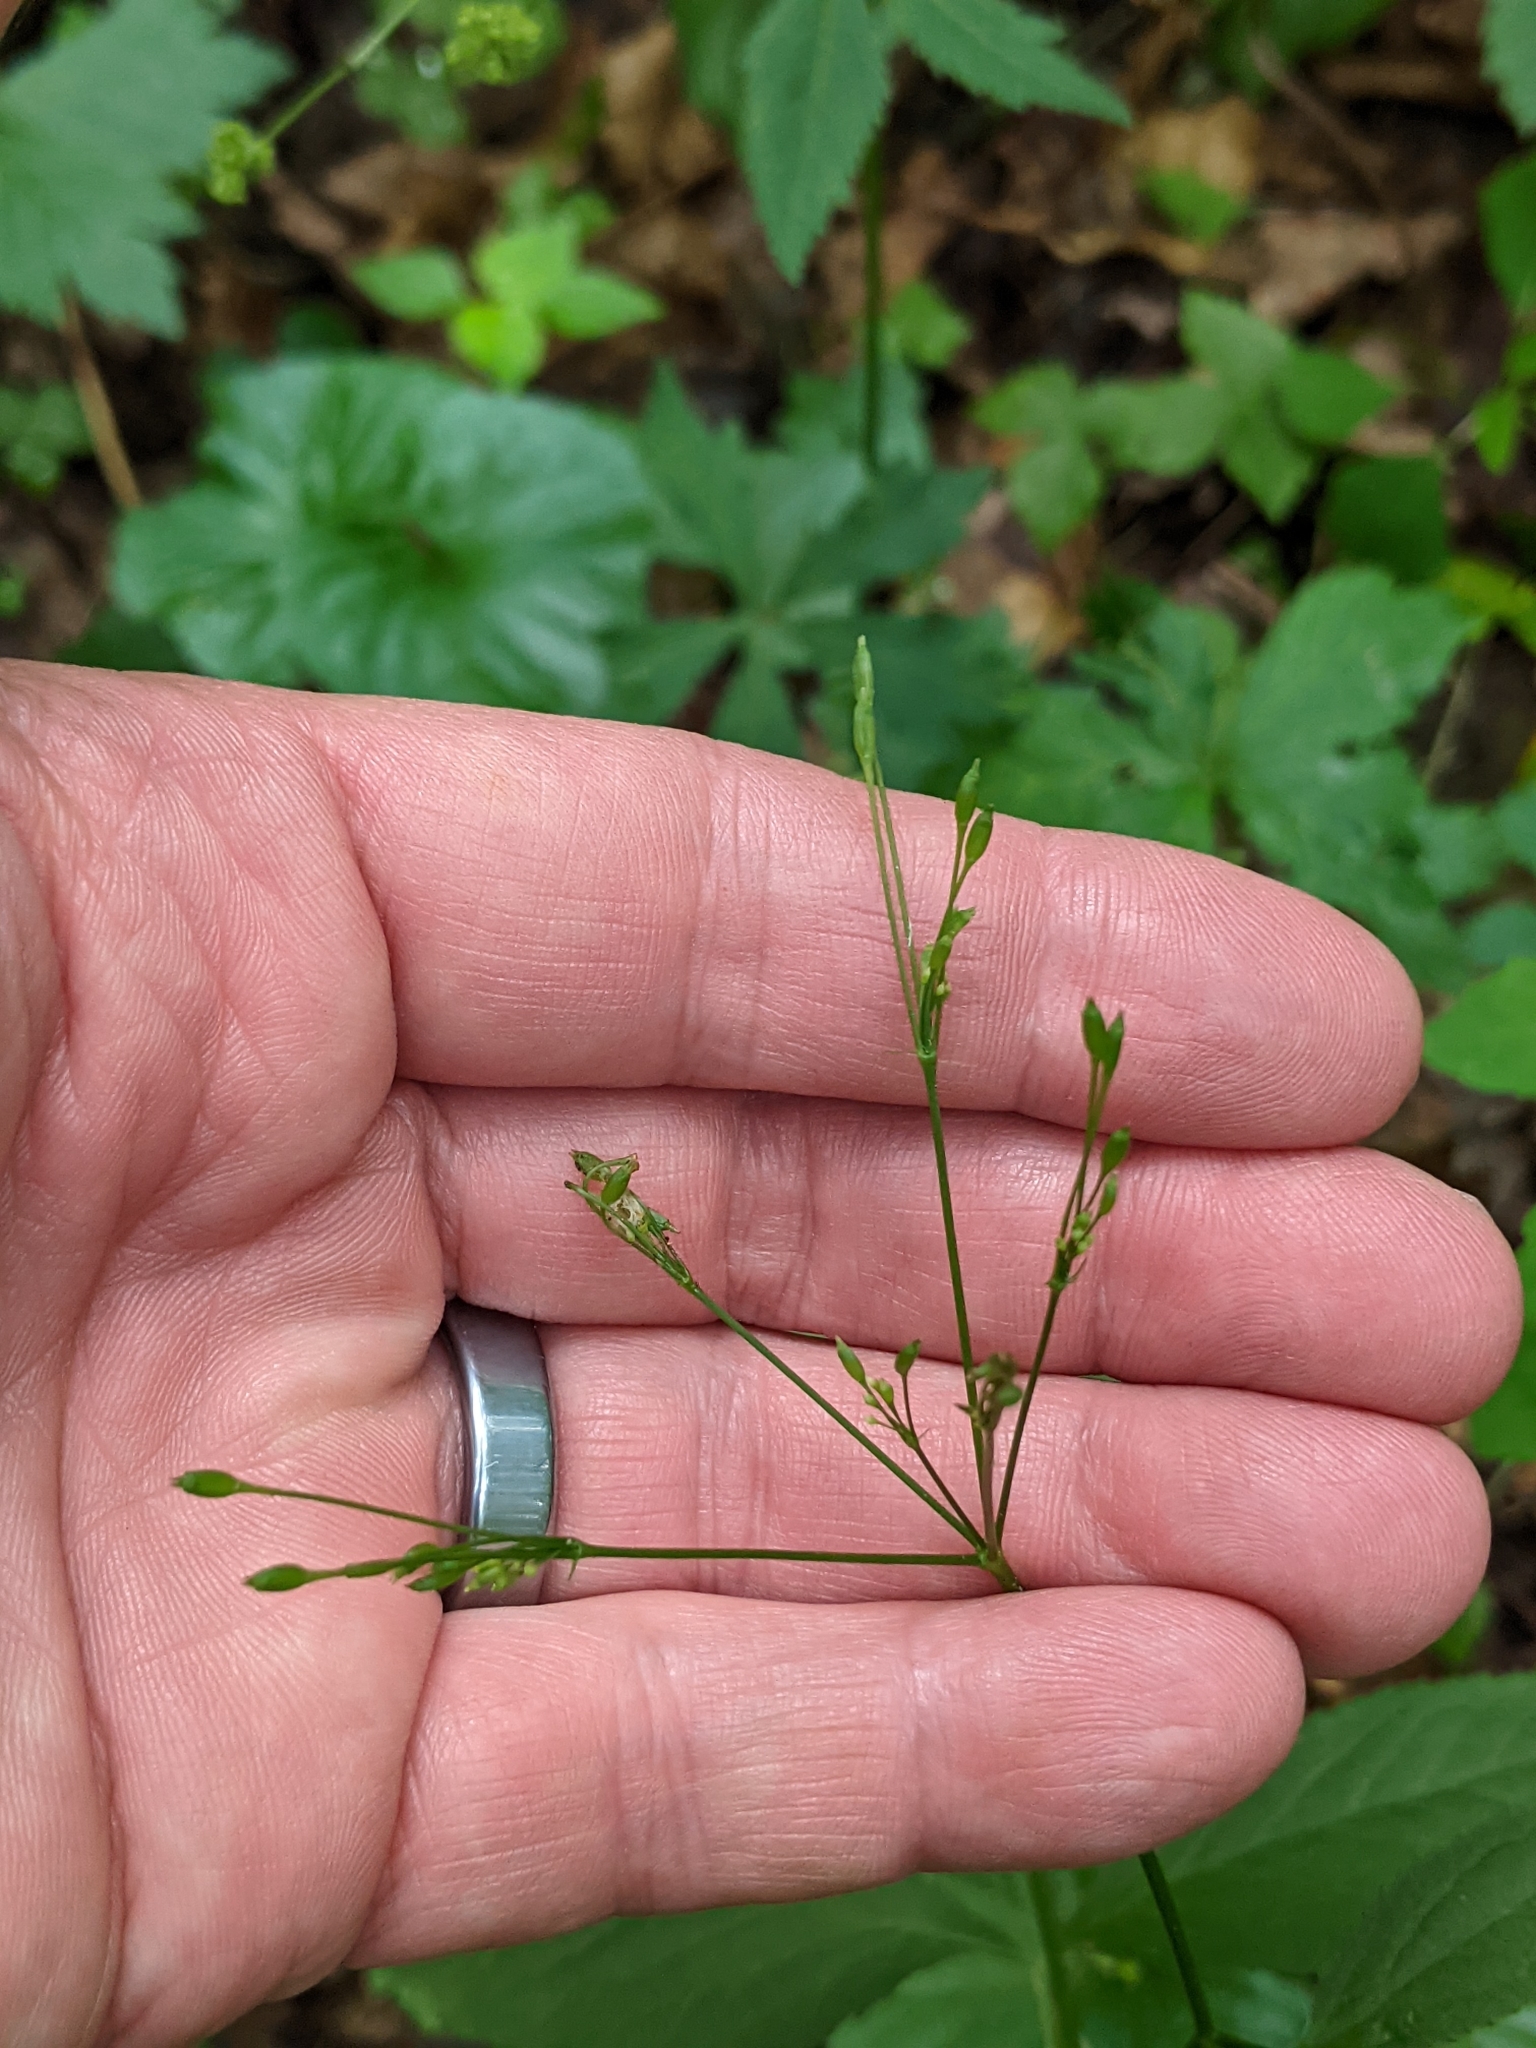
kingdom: Plantae
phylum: Tracheophyta
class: Magnoliopsida
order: Apiales
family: Apiaceae
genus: Cryptotaenia
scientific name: Cryptotaenia canadensis
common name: Honewort
